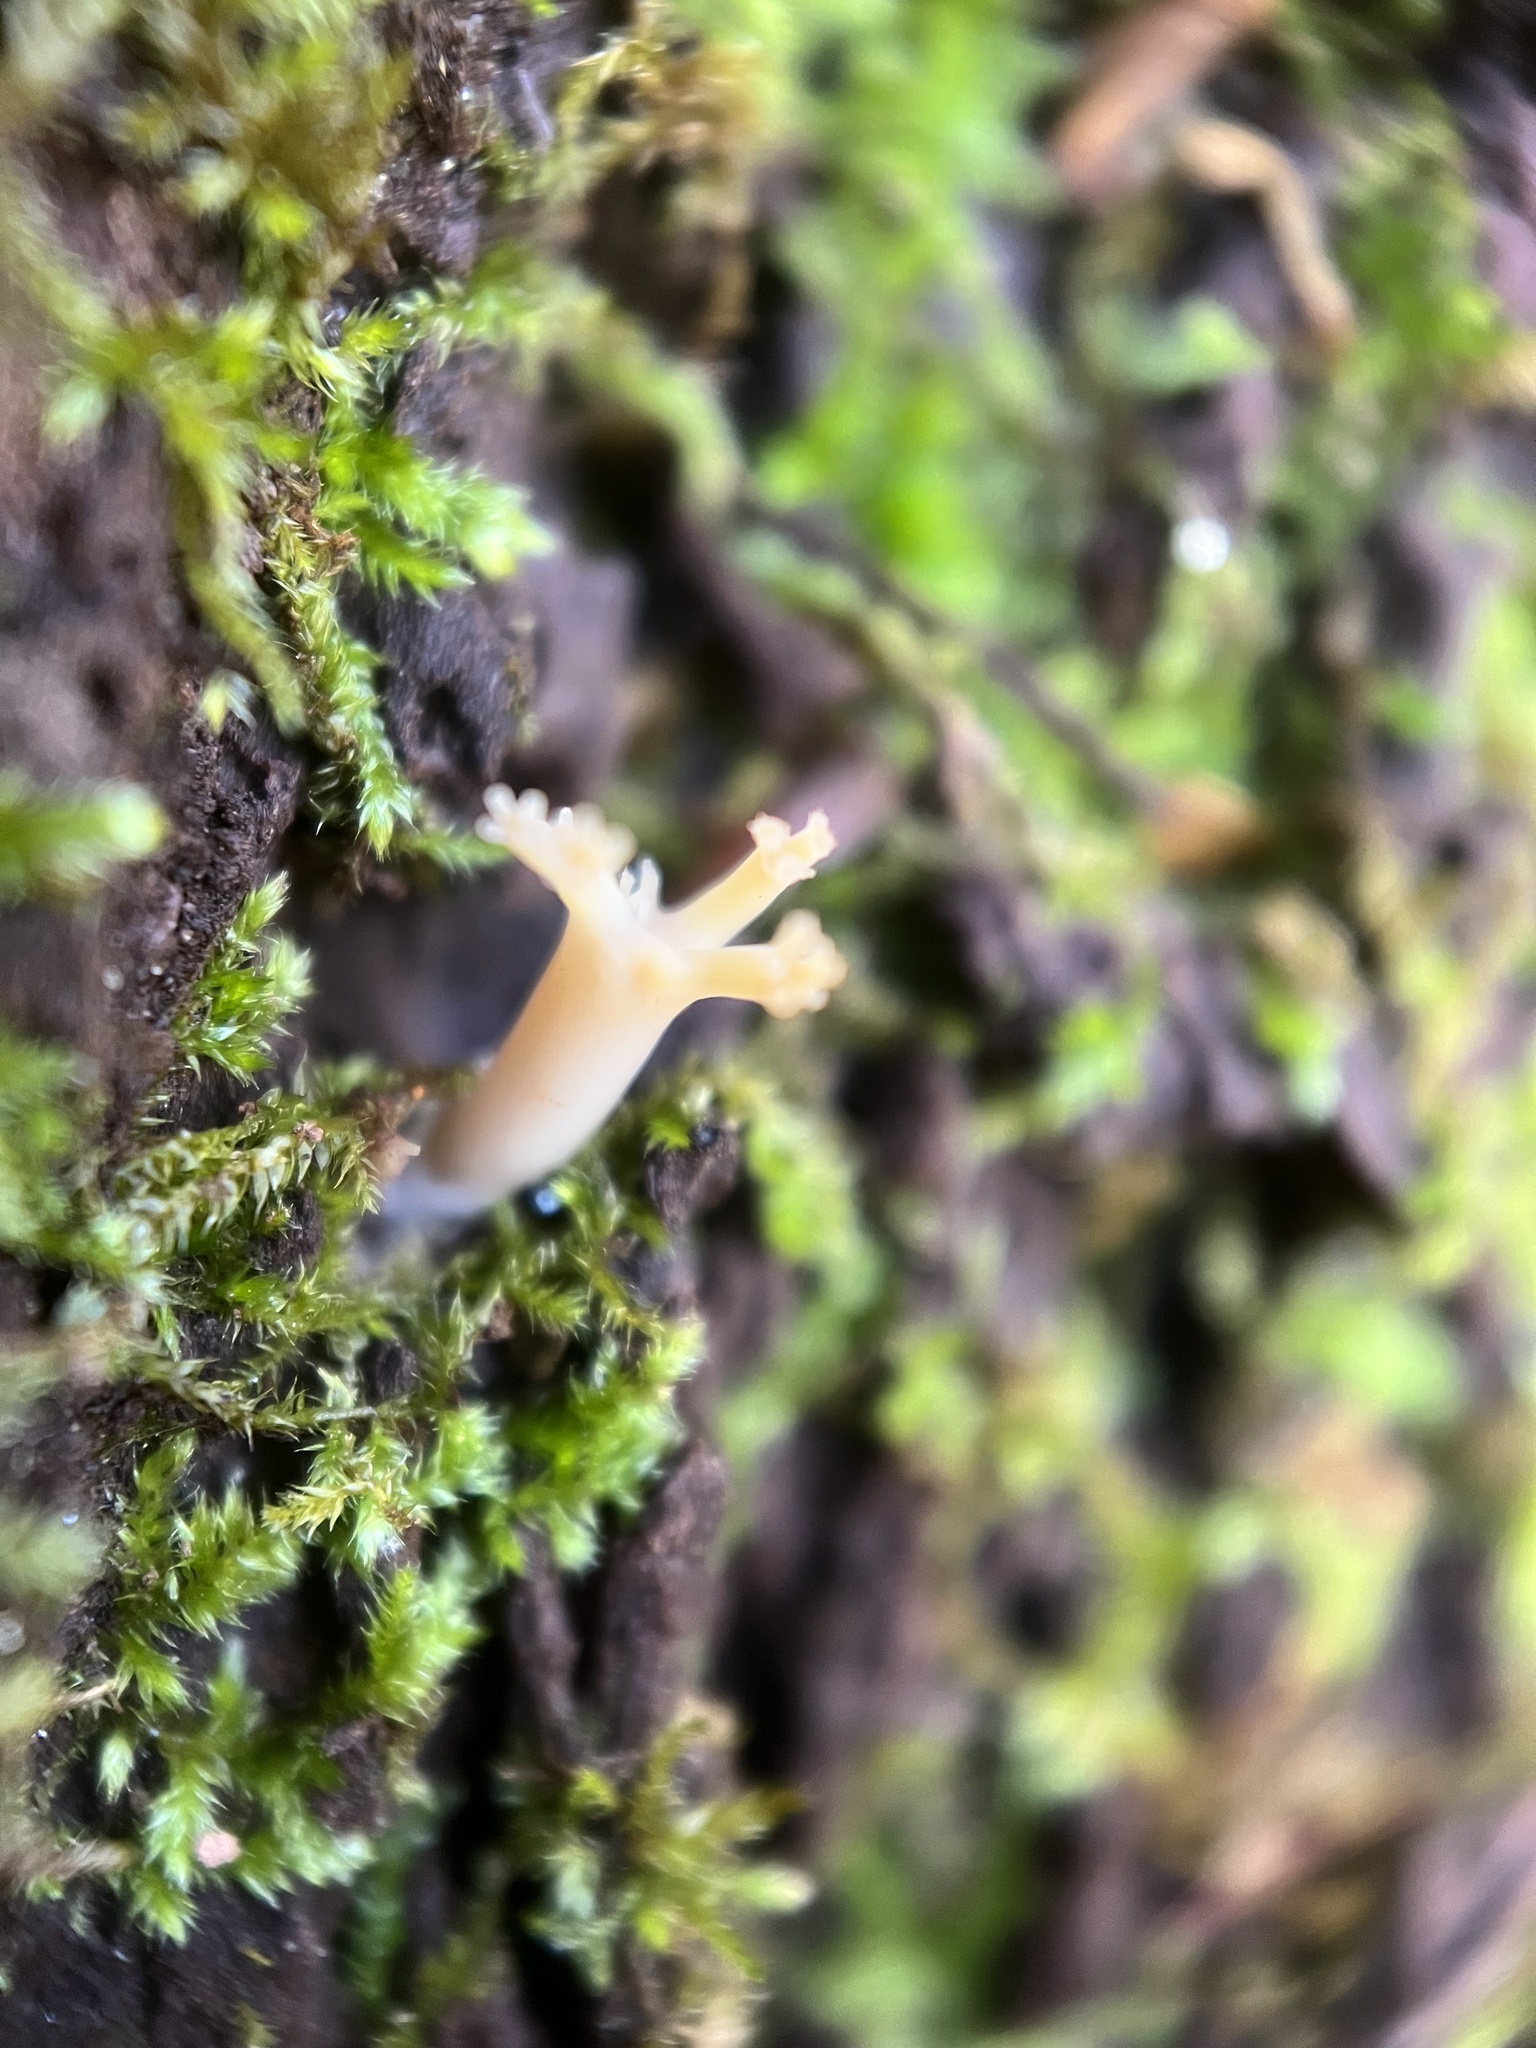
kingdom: Fungi
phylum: Basidiomycota
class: Agaricomycetes
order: Russulales
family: Auriscalpiaceae
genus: Artomyces
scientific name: Artomyces pyxidatus
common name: Crown-tipped coral fungus
